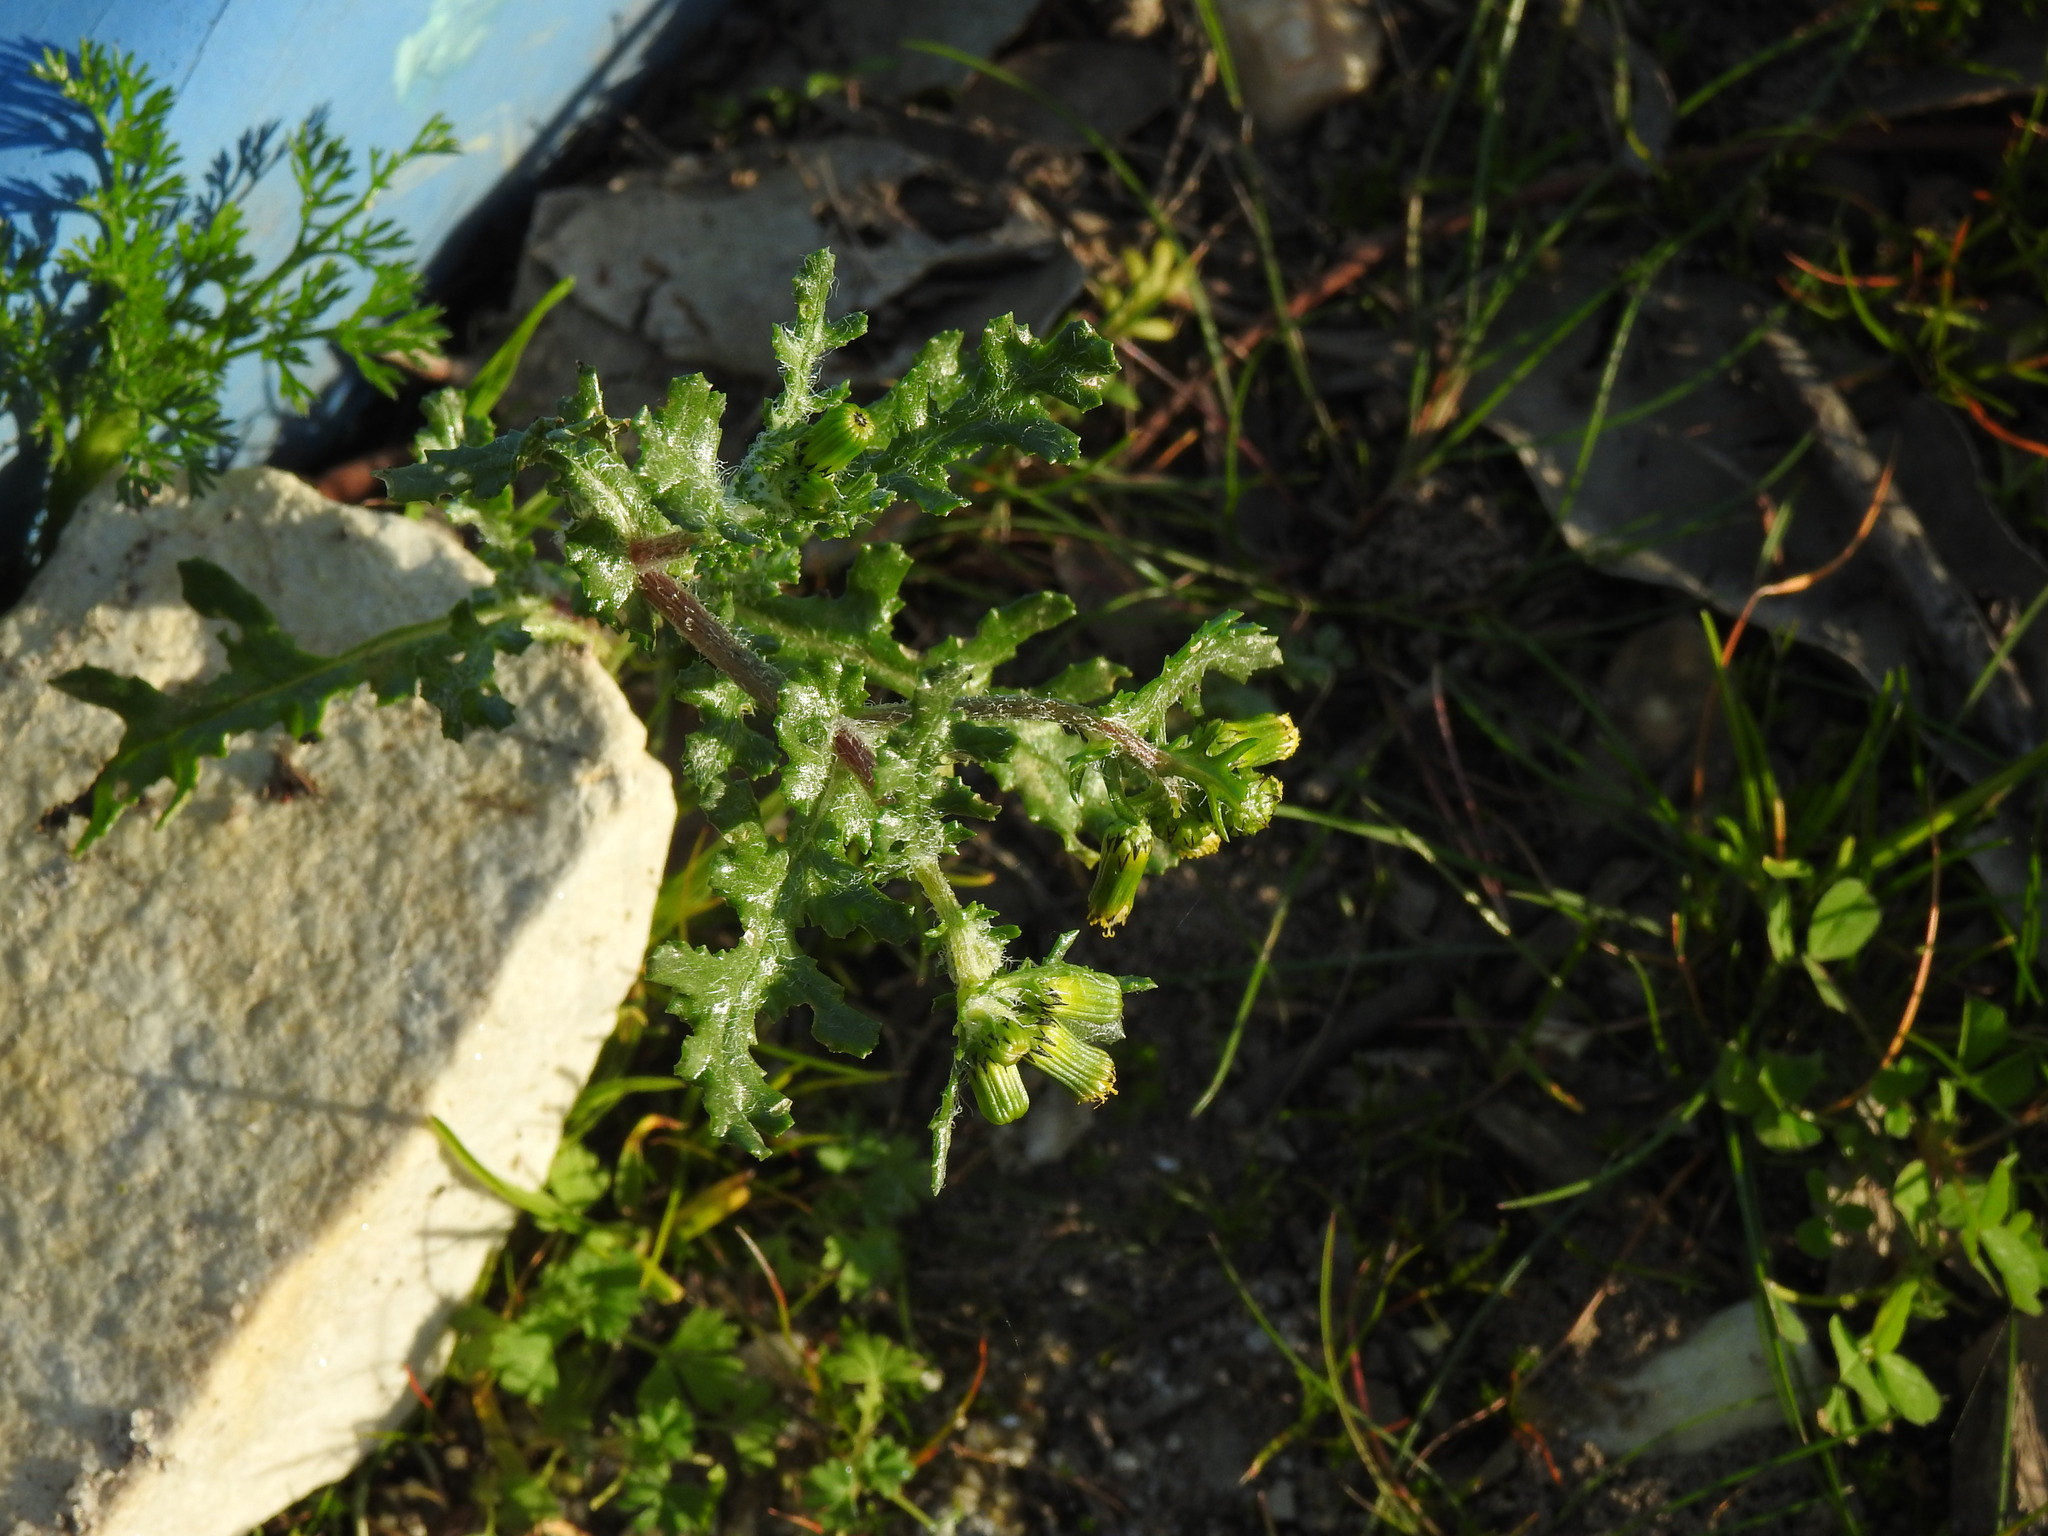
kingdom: Plantae
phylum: Tracheophyta
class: Magnoliopsida
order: Asterales
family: Asteraceae
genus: Senecio
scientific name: Senecio vulgaris
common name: Old-man-in-the-spring
